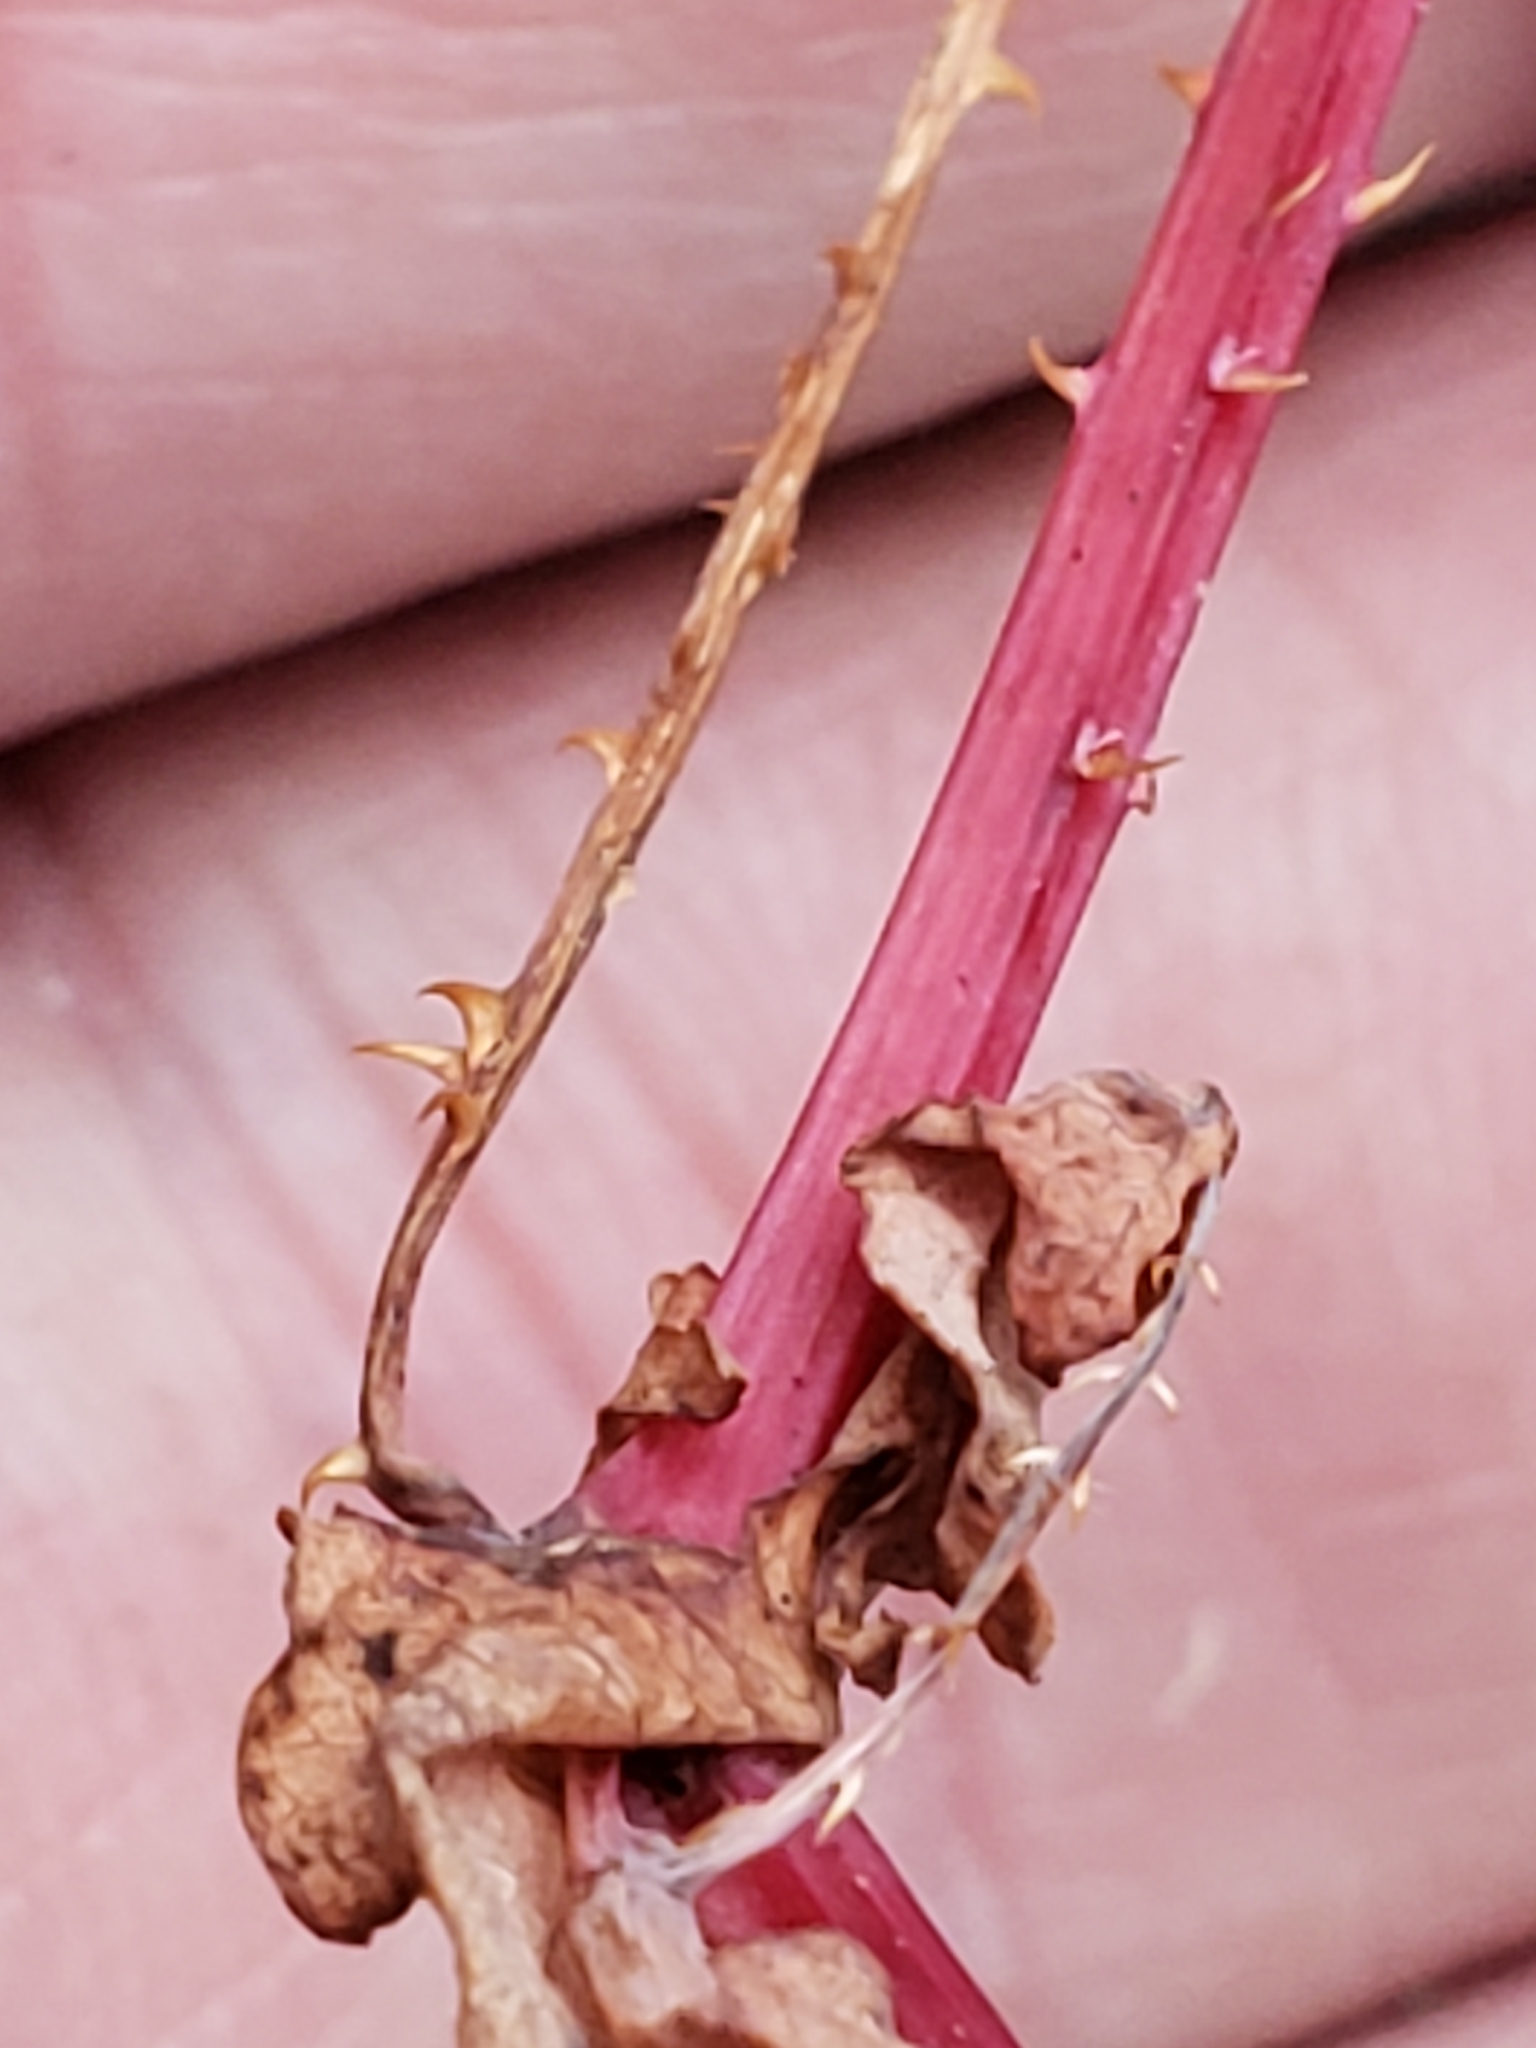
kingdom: Plantae
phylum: Tracheophyta
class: Magnoliopsida
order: Caryophyllales
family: Polygonaceae
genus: Persicaria
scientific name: Persicaria perfoliata
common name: Asiatic tearthumb
